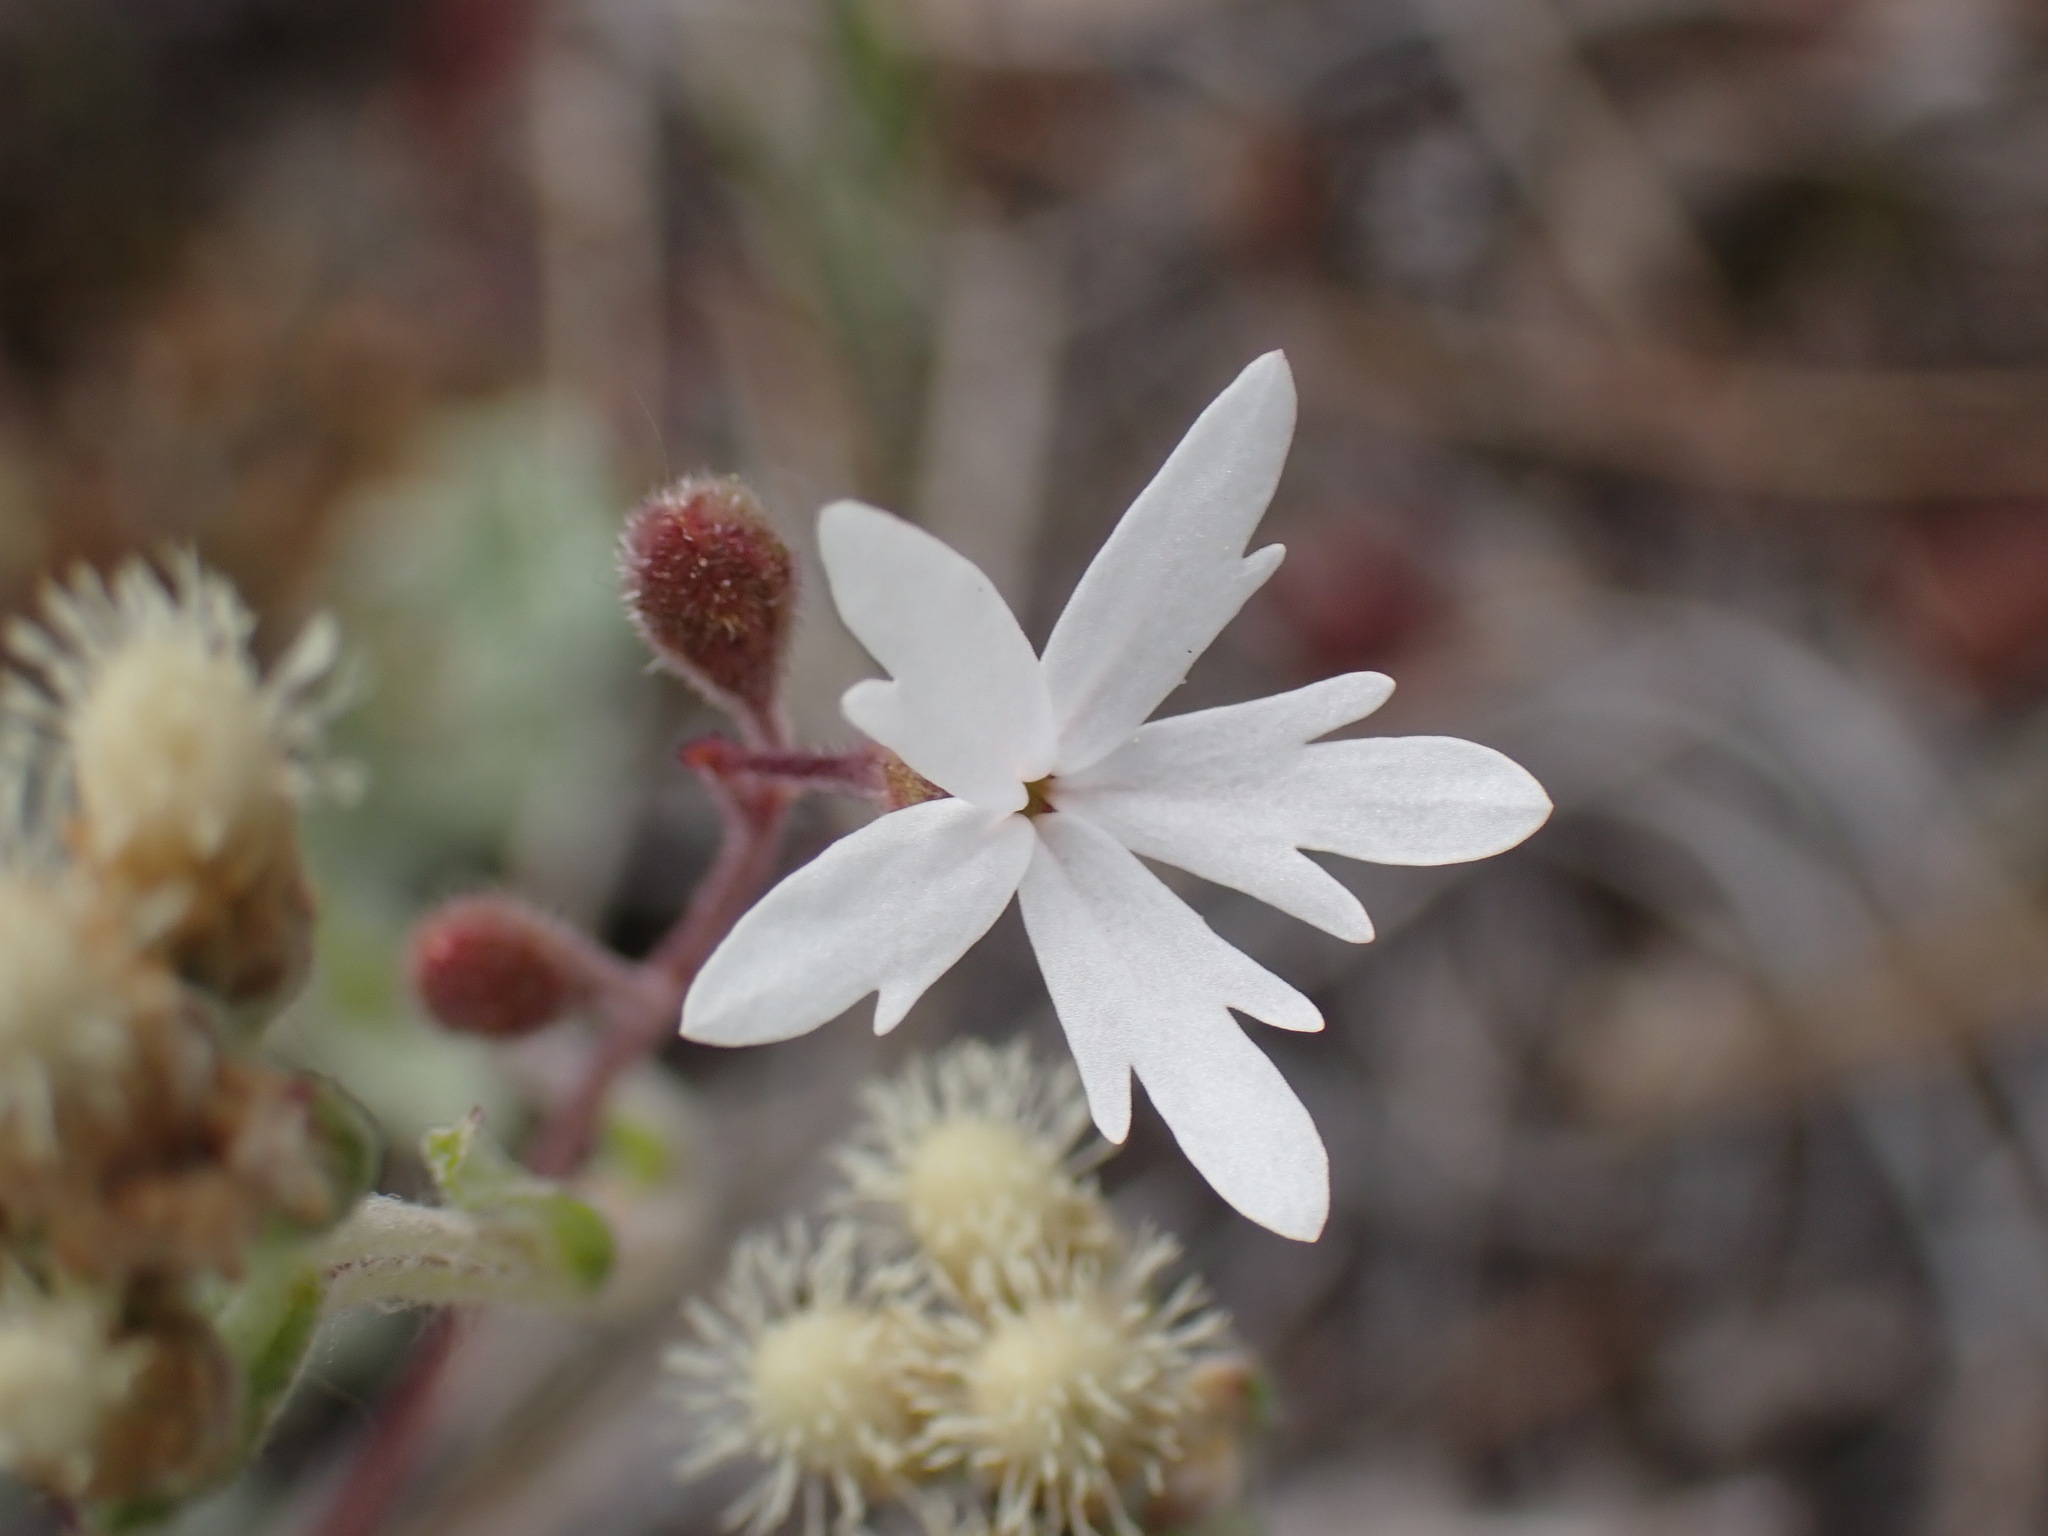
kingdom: Plantae
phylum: Tracheophyta
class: Magnoliopsida
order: Saxifragales
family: Saxifragaceae
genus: Lithophragma
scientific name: Lithophragma parviflorum
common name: Small-flowered fringe-cup
